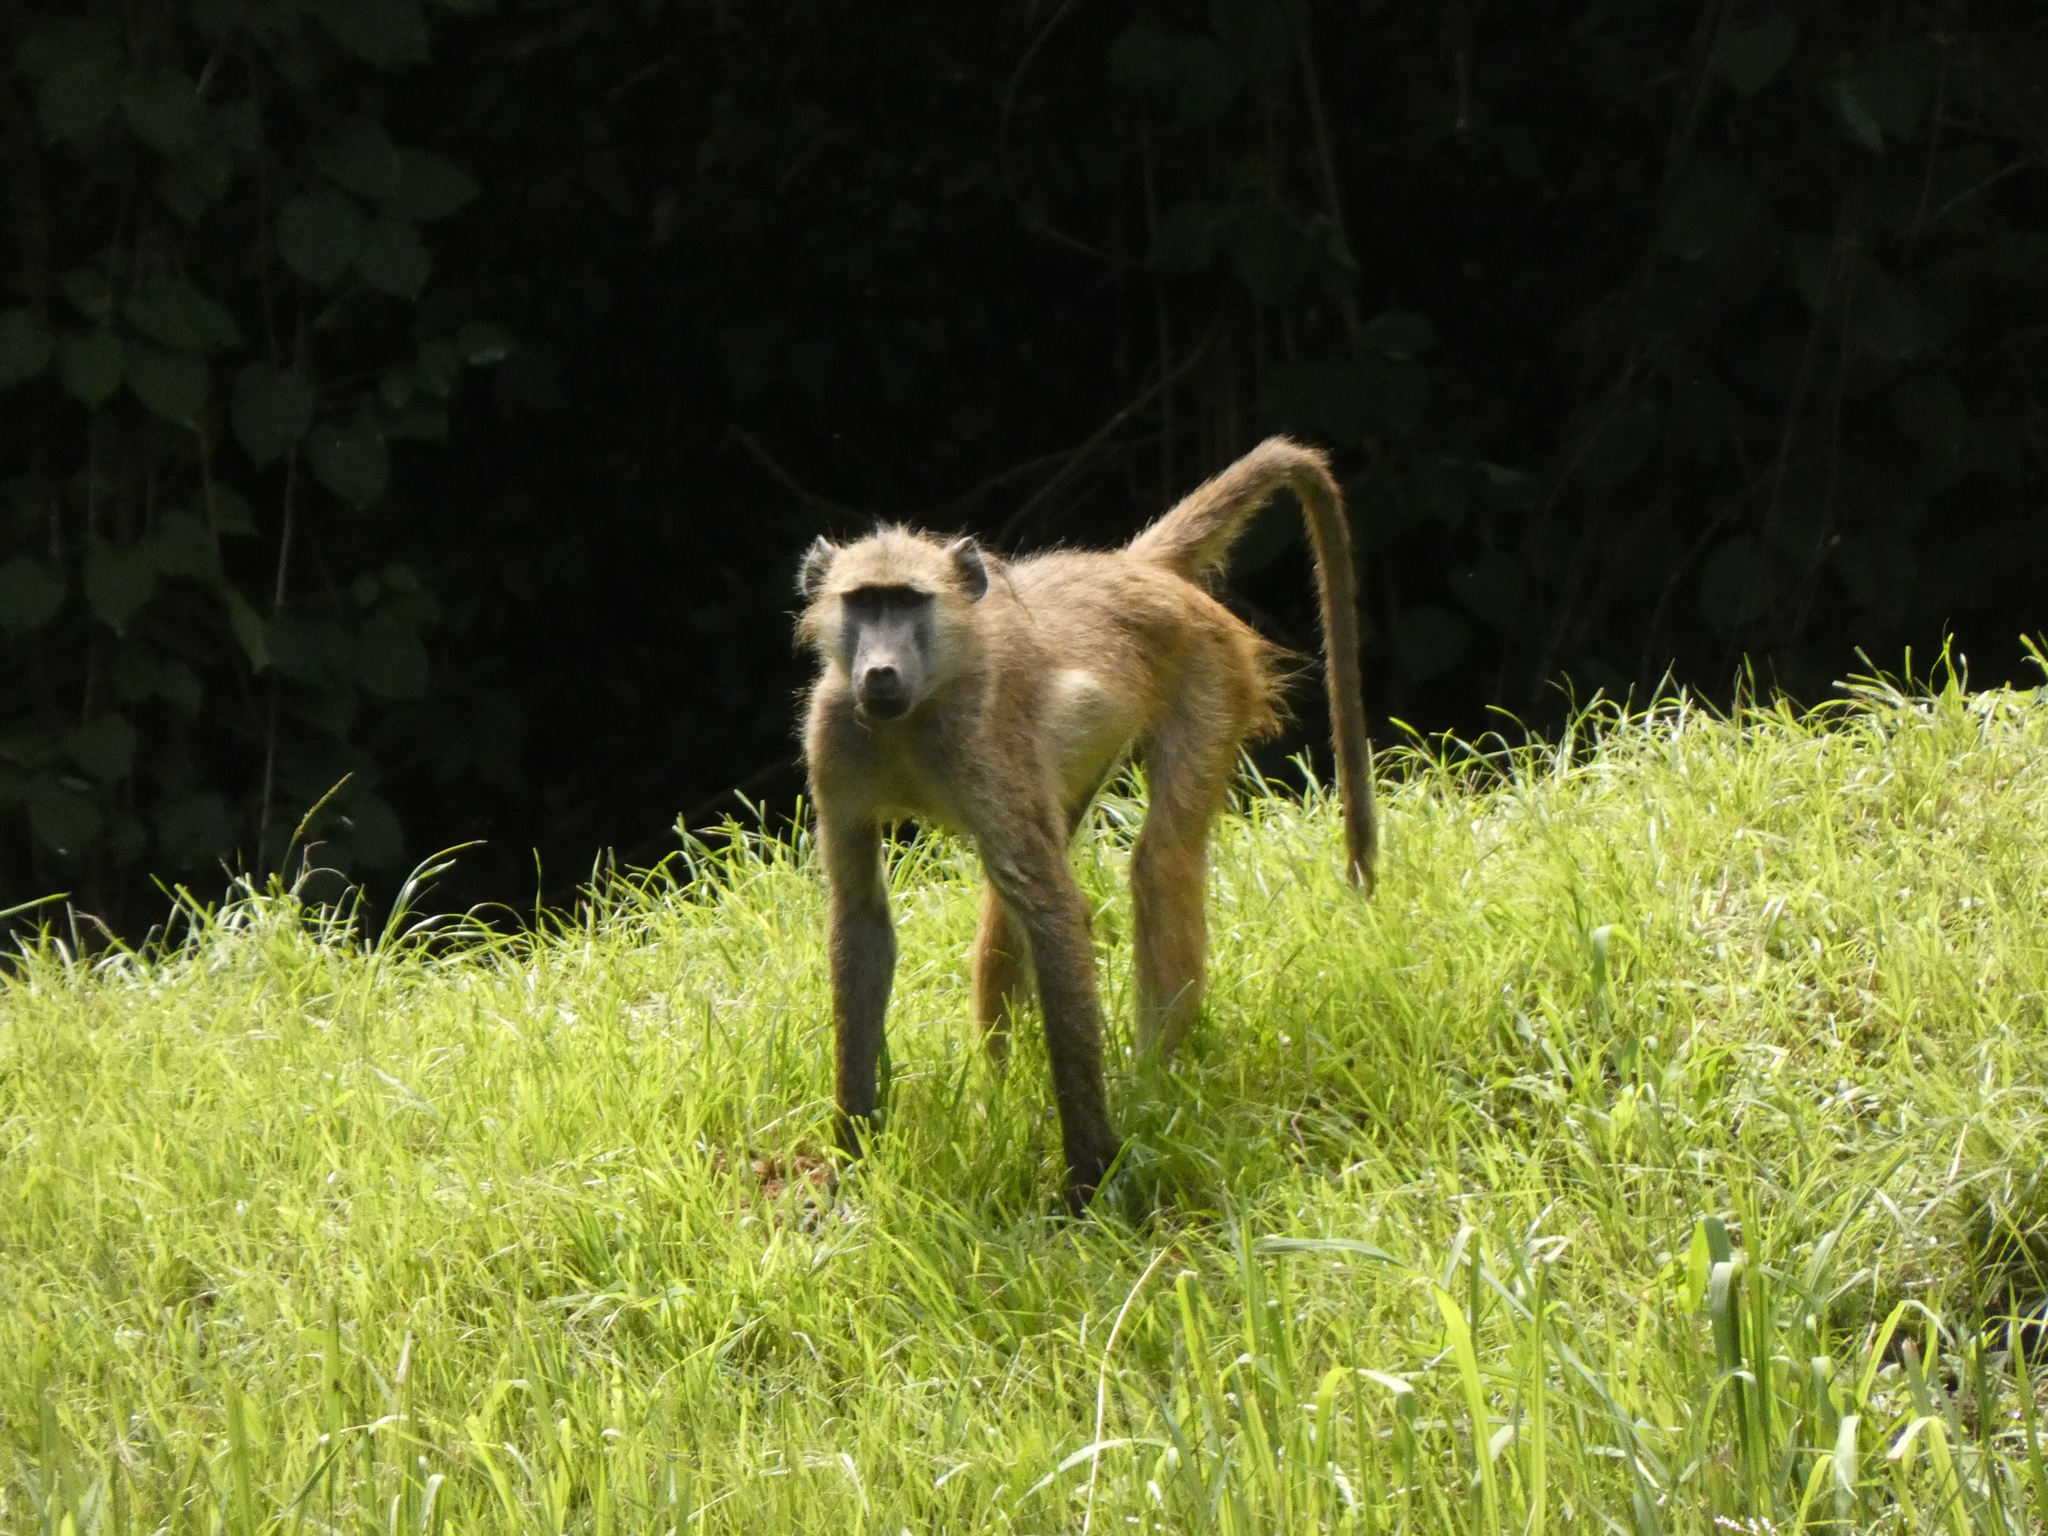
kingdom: Animalia
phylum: Chordata
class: Mammalia
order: Primates
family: Cercopithecidae
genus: Papio
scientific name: Papio ursinus
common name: Chacma baboon
